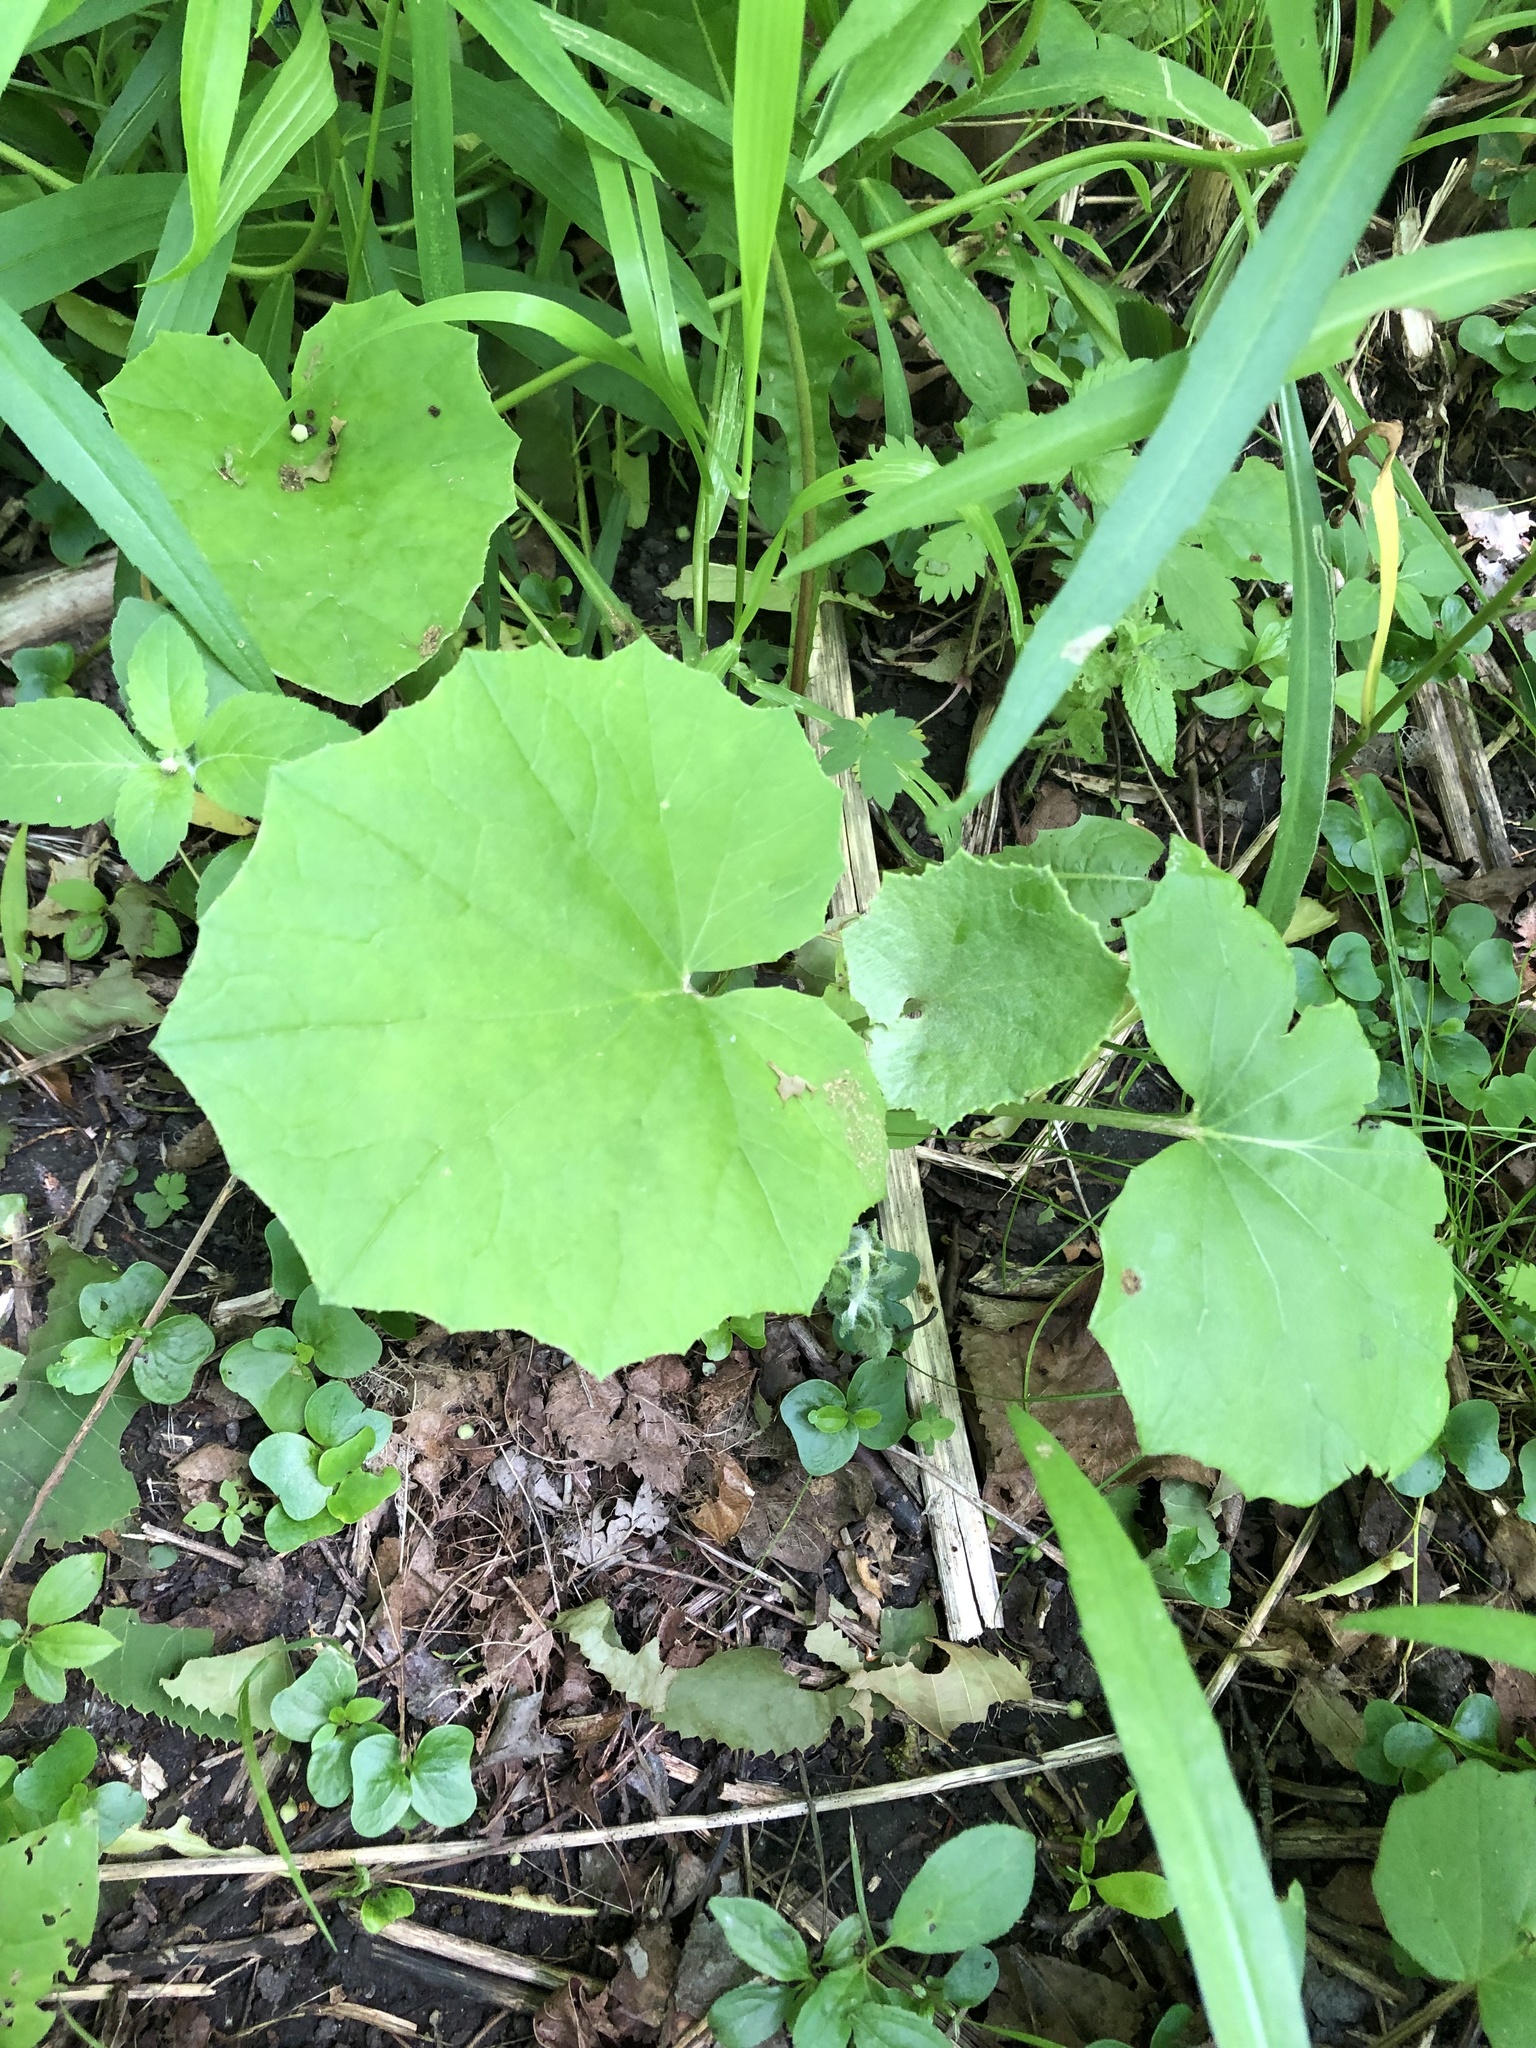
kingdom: Plantae
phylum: Tracheophyta
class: Magnoliopsida
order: Asterales
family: Asteraceae
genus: Tussilago
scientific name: Tussilago farfara
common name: Coltsfoot
